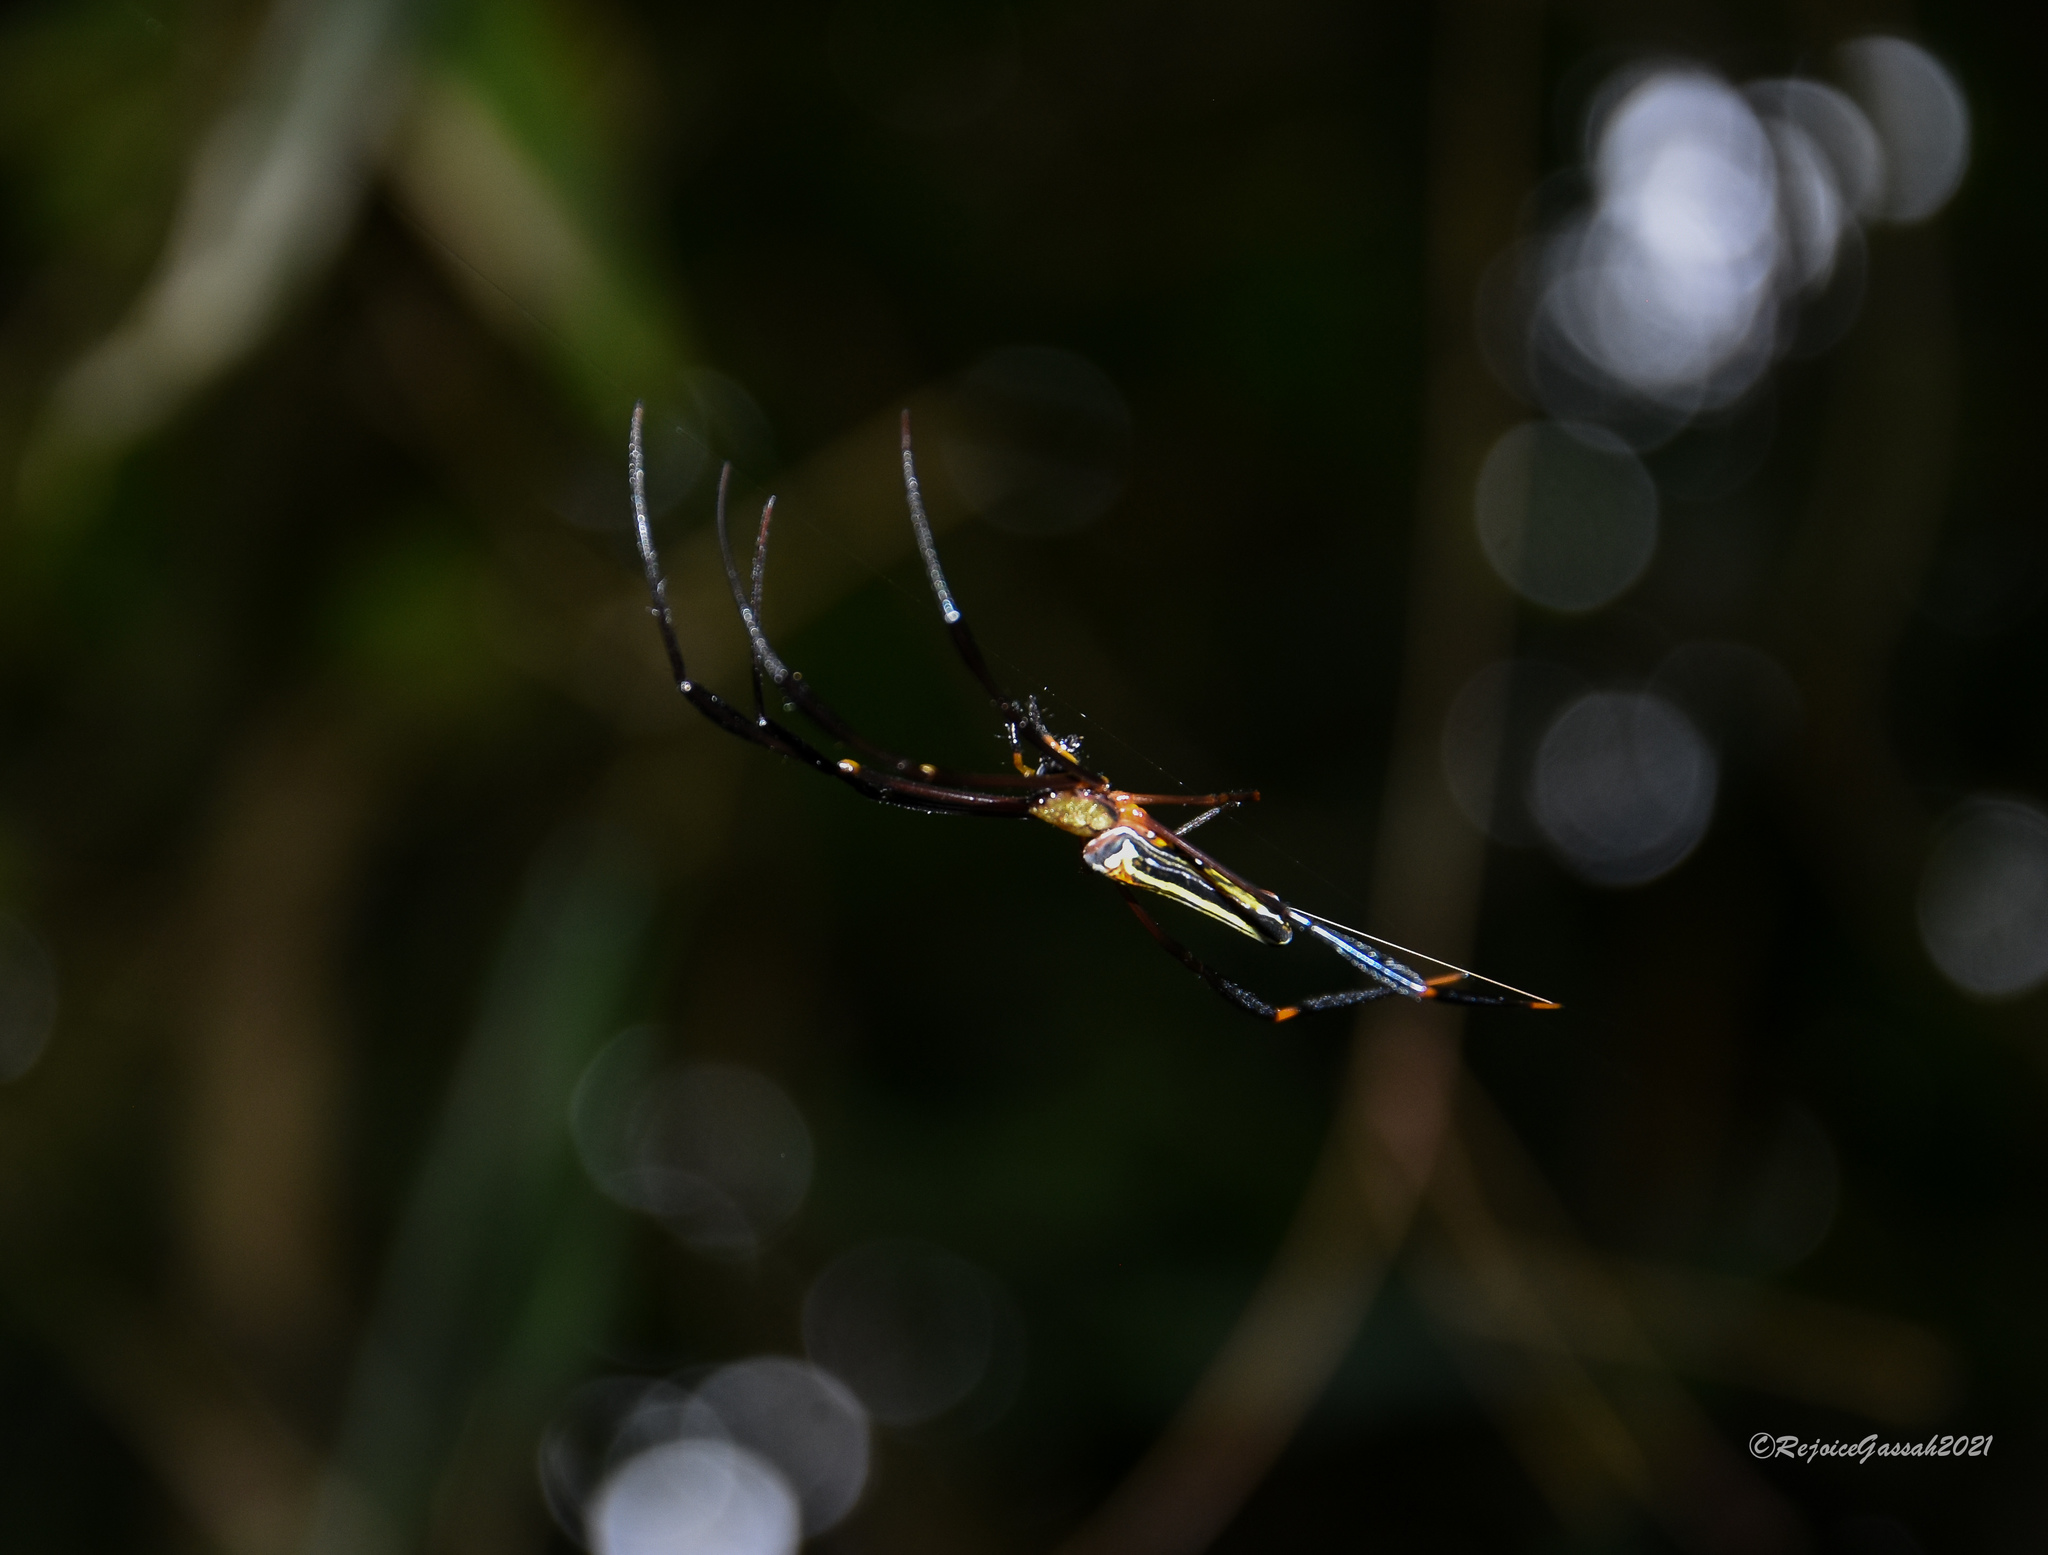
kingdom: Animalia
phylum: Arthropoda
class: Arachnida
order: Araneae
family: Araneidae
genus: Nephila
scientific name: Nephila pilipes
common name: Giant golden orb weaver
